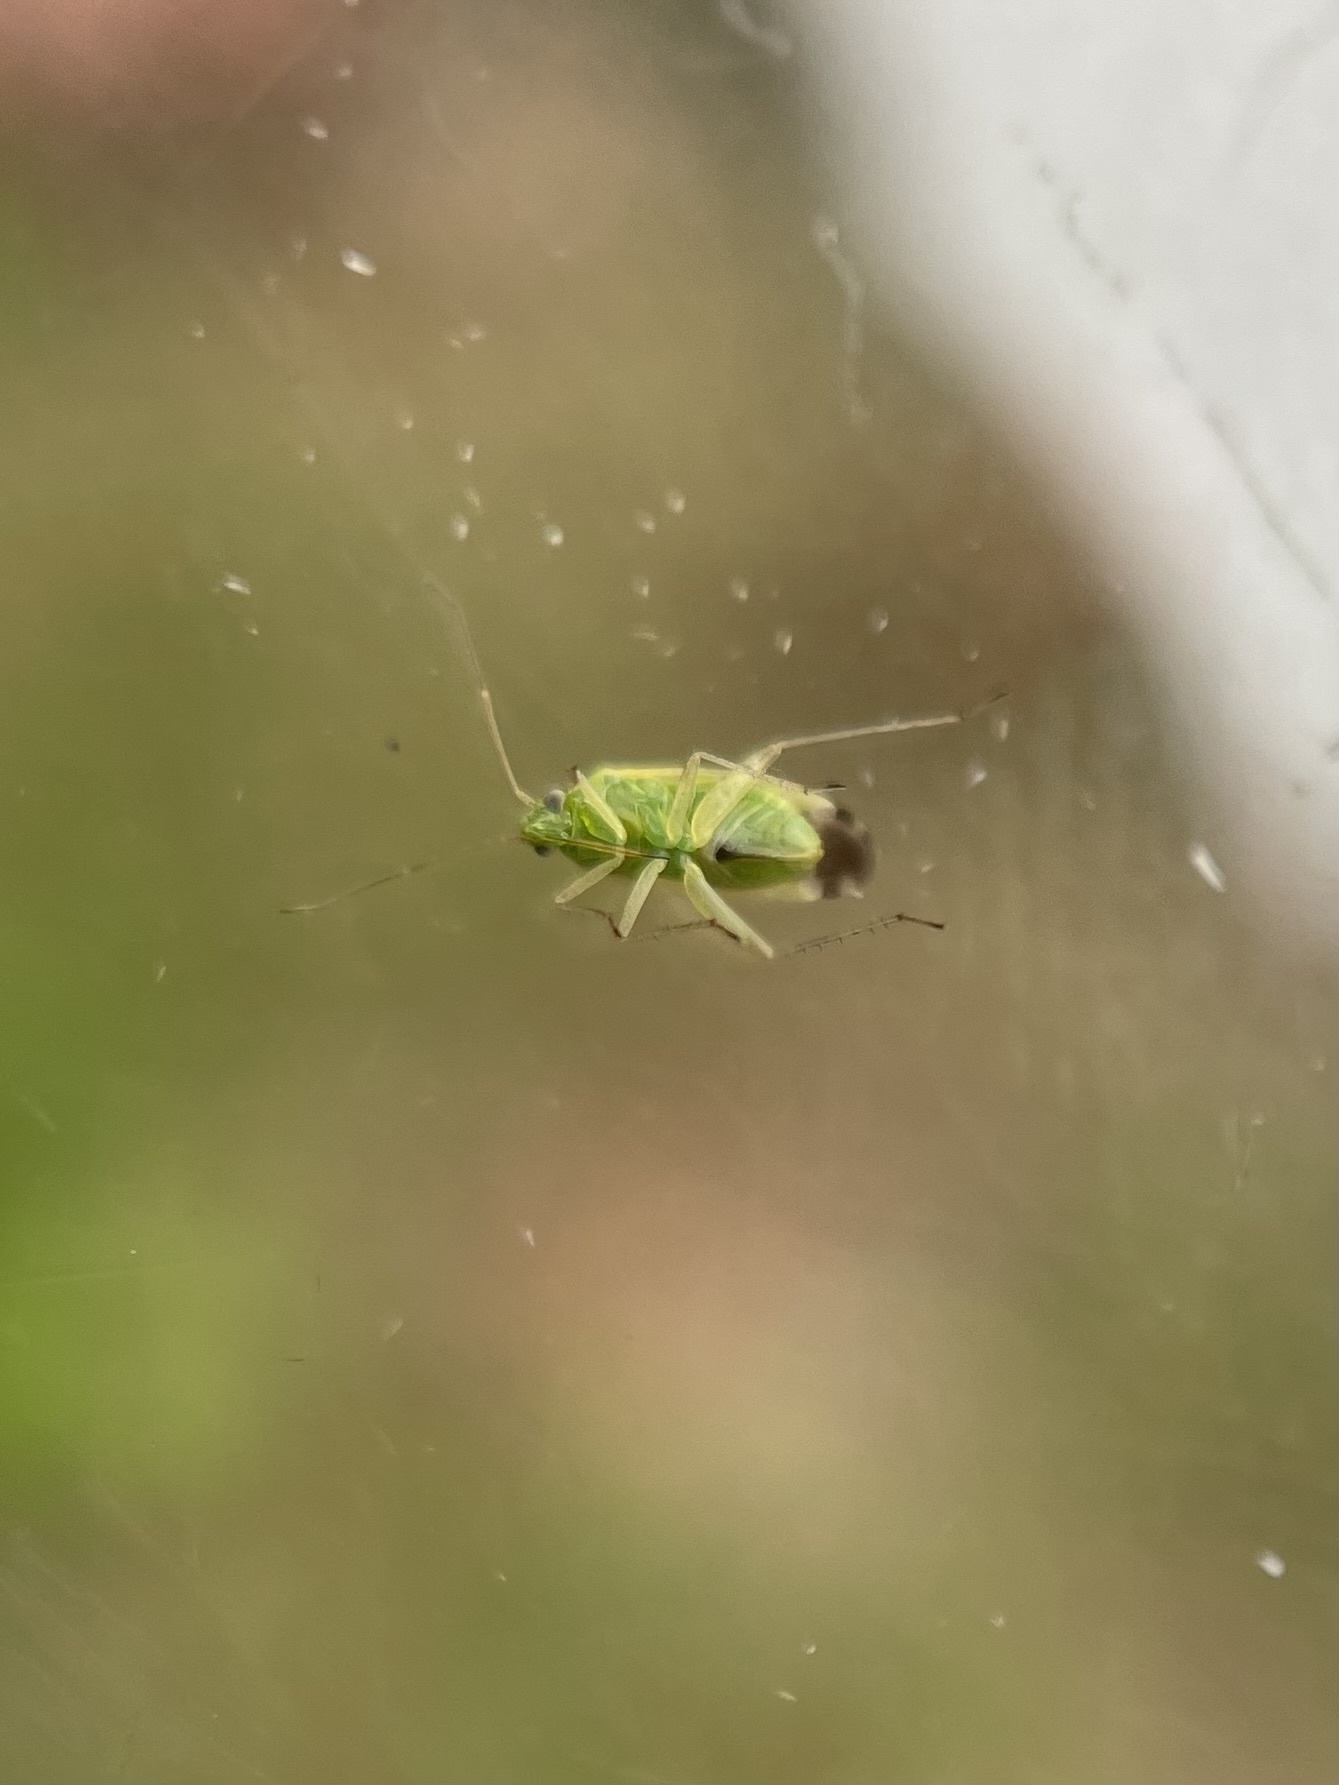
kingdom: Animalia
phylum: Arthropoda
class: Insecta
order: Hemiptera
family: Miridae
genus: Reuteroscopus
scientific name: Reuteroscopus ornatus
